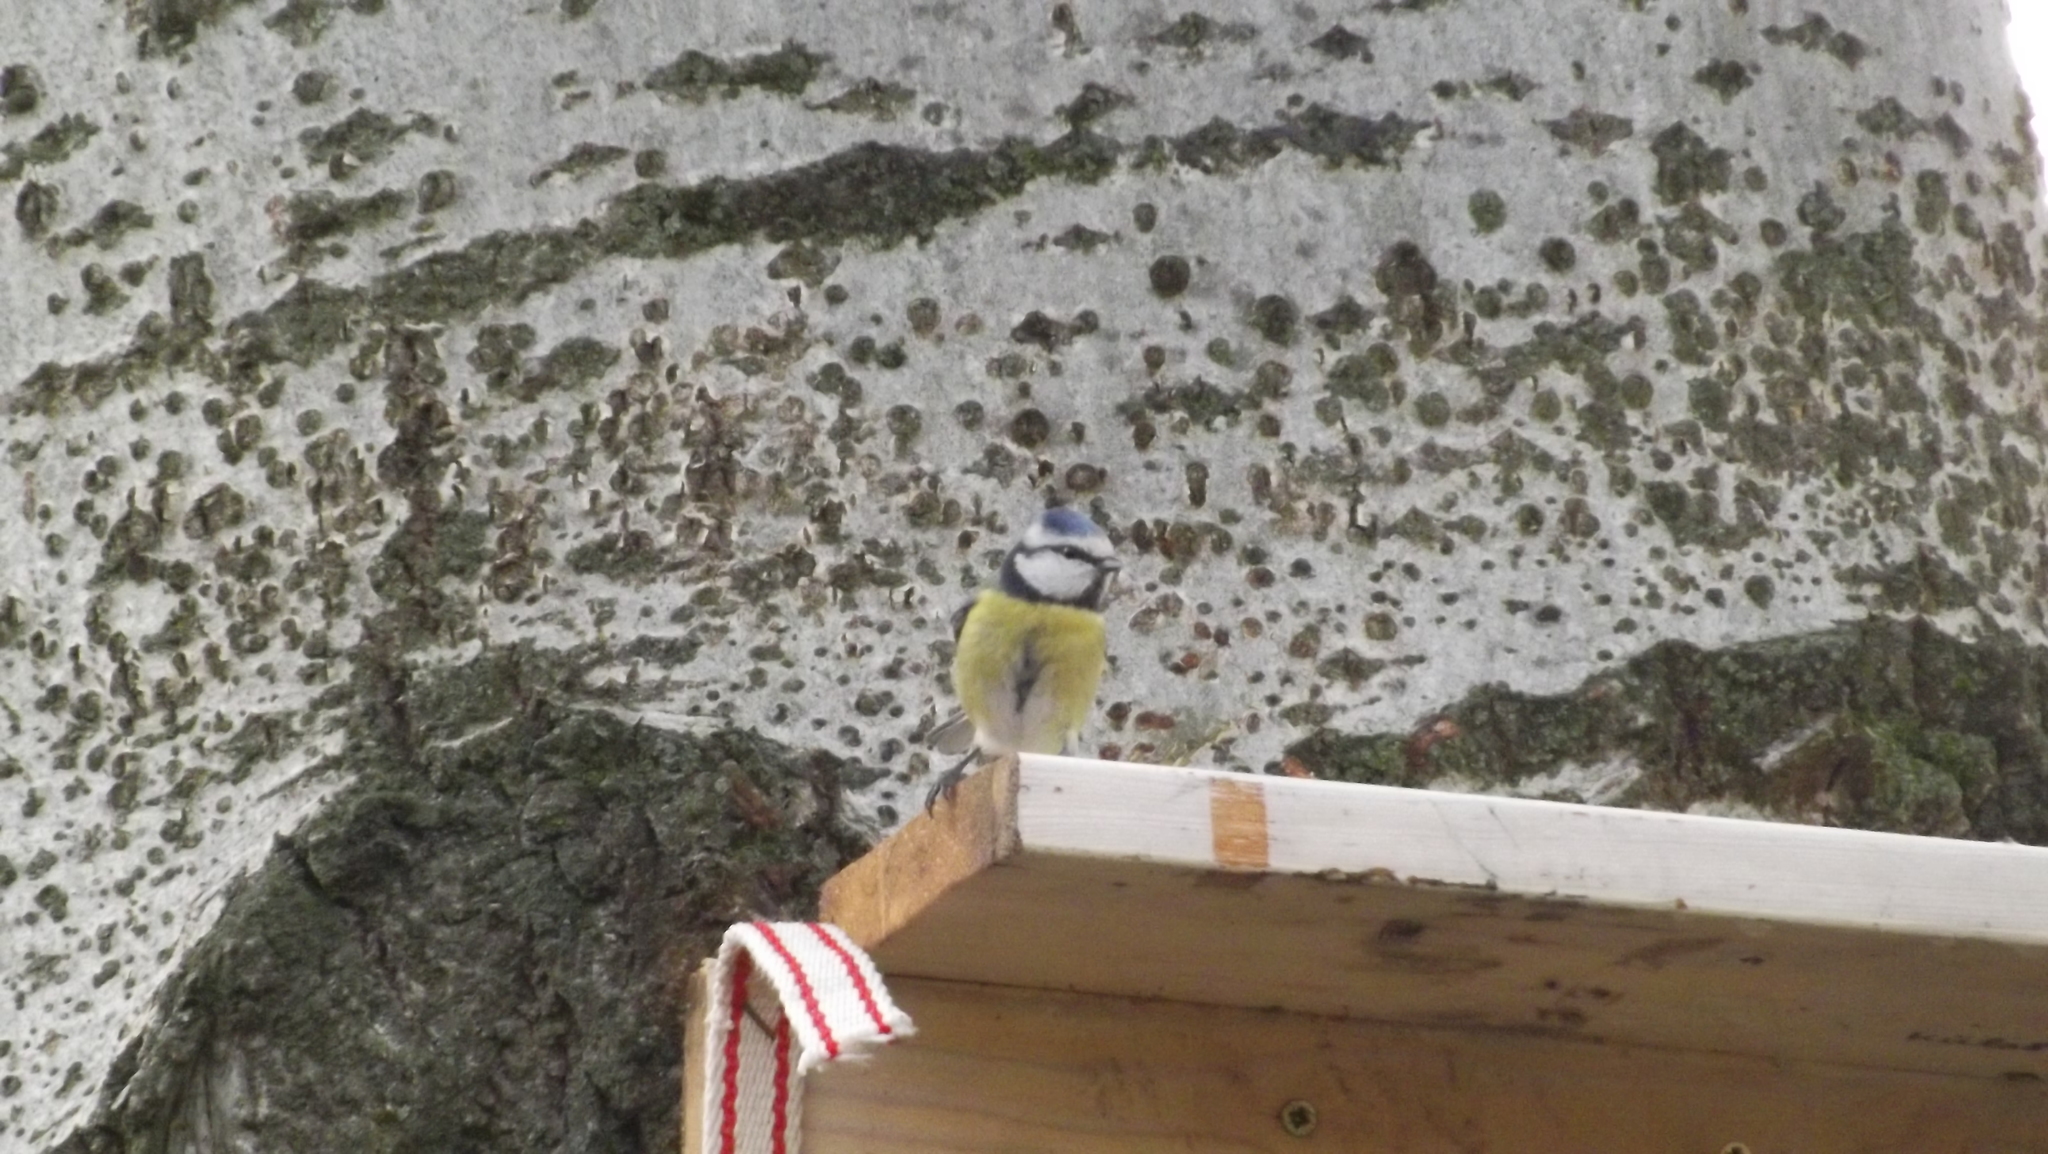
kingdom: Animalia
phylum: Chordata
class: Aves
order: Passeriformes
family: Paridae
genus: Cyanistes
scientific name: Cyanistes caeruleus
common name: Eurasian blue tit
